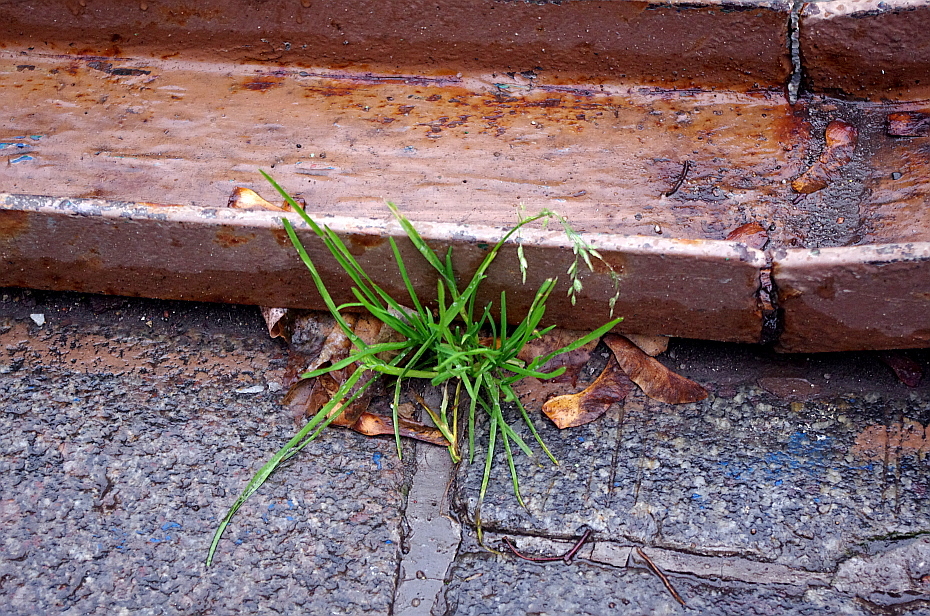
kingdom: Plantae
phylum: Tracheophyta
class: Liliopsida
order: Poales
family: Poaceae
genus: Poa
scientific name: Poa annua
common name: Annual bluegrass
